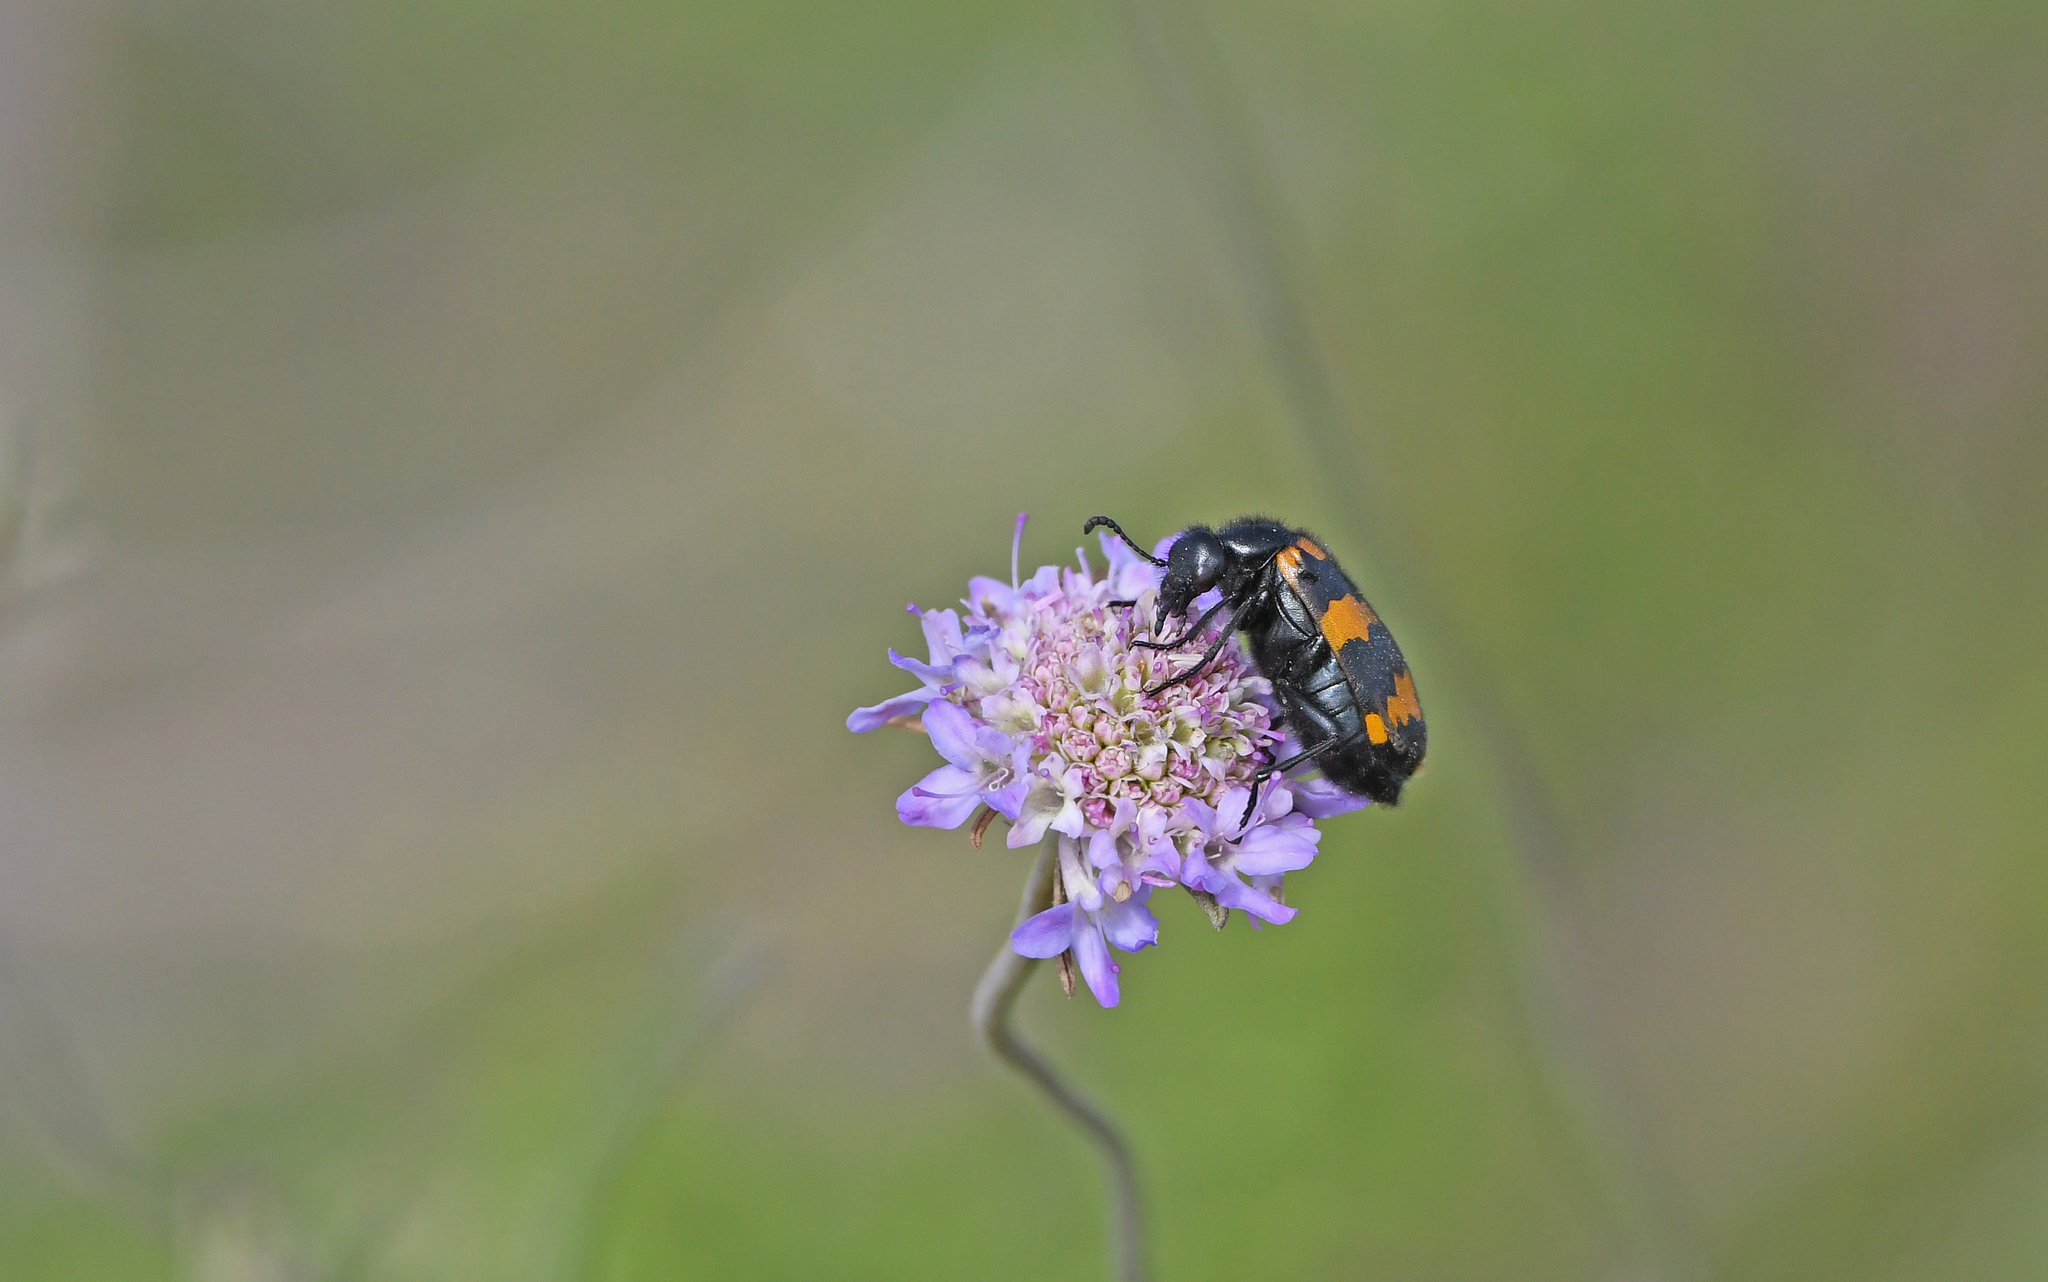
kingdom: Animalia
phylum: Arthropoda
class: Insecta
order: Coleoptera
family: Meloidae
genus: Mylabris
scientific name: Mylabris variabilis
